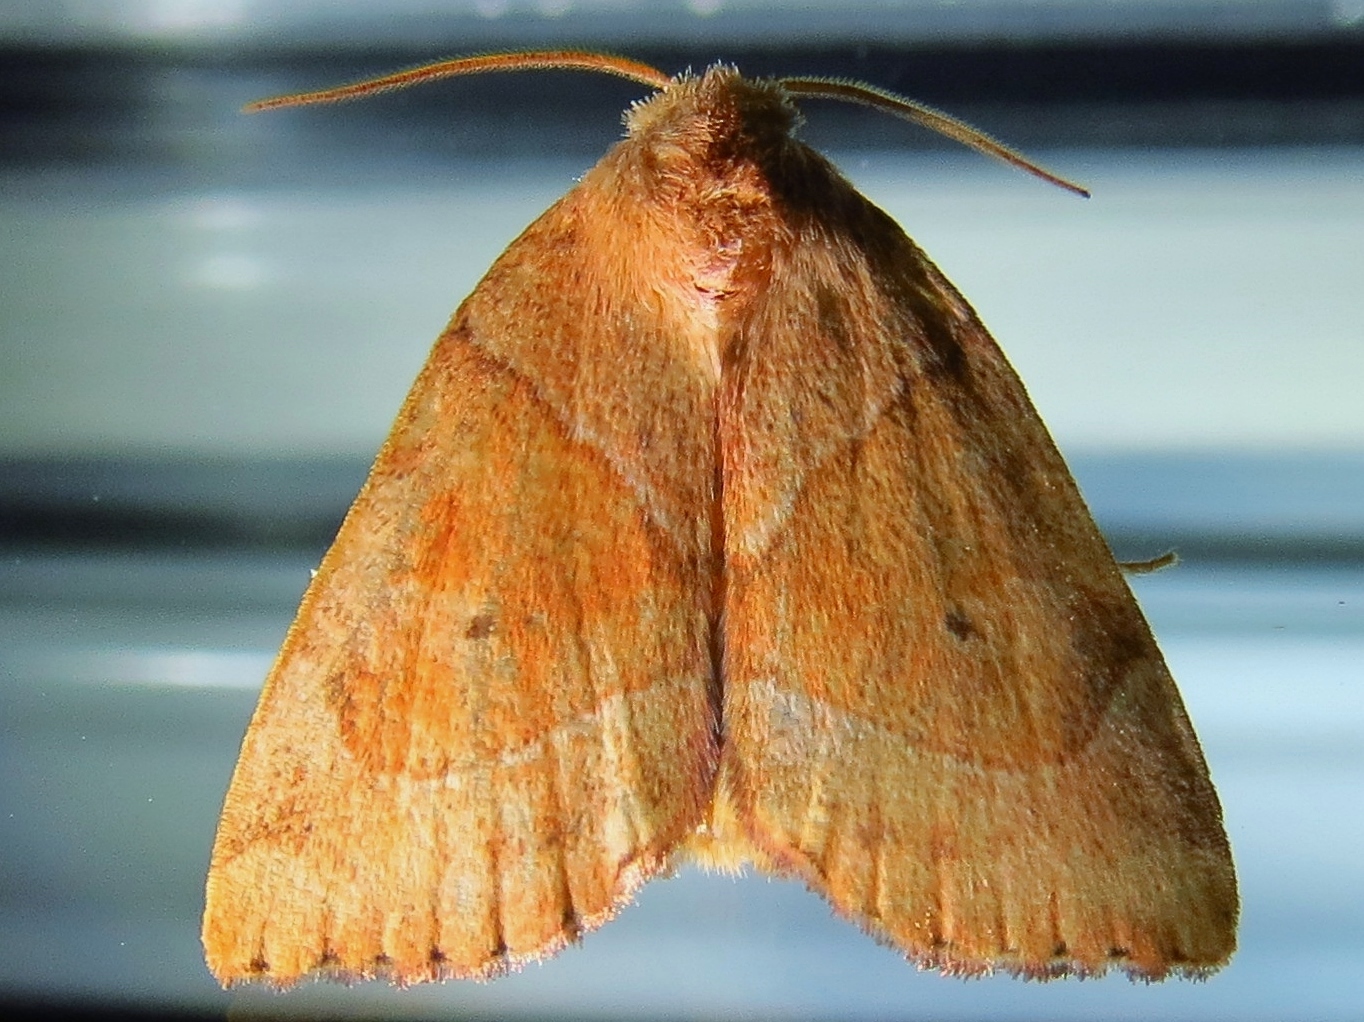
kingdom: Animalia
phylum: Arthropoda
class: Insecta
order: Lepidoptera
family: Noctuidae
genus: Cosmia
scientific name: Cosmia trapezina
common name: Dun-bar
